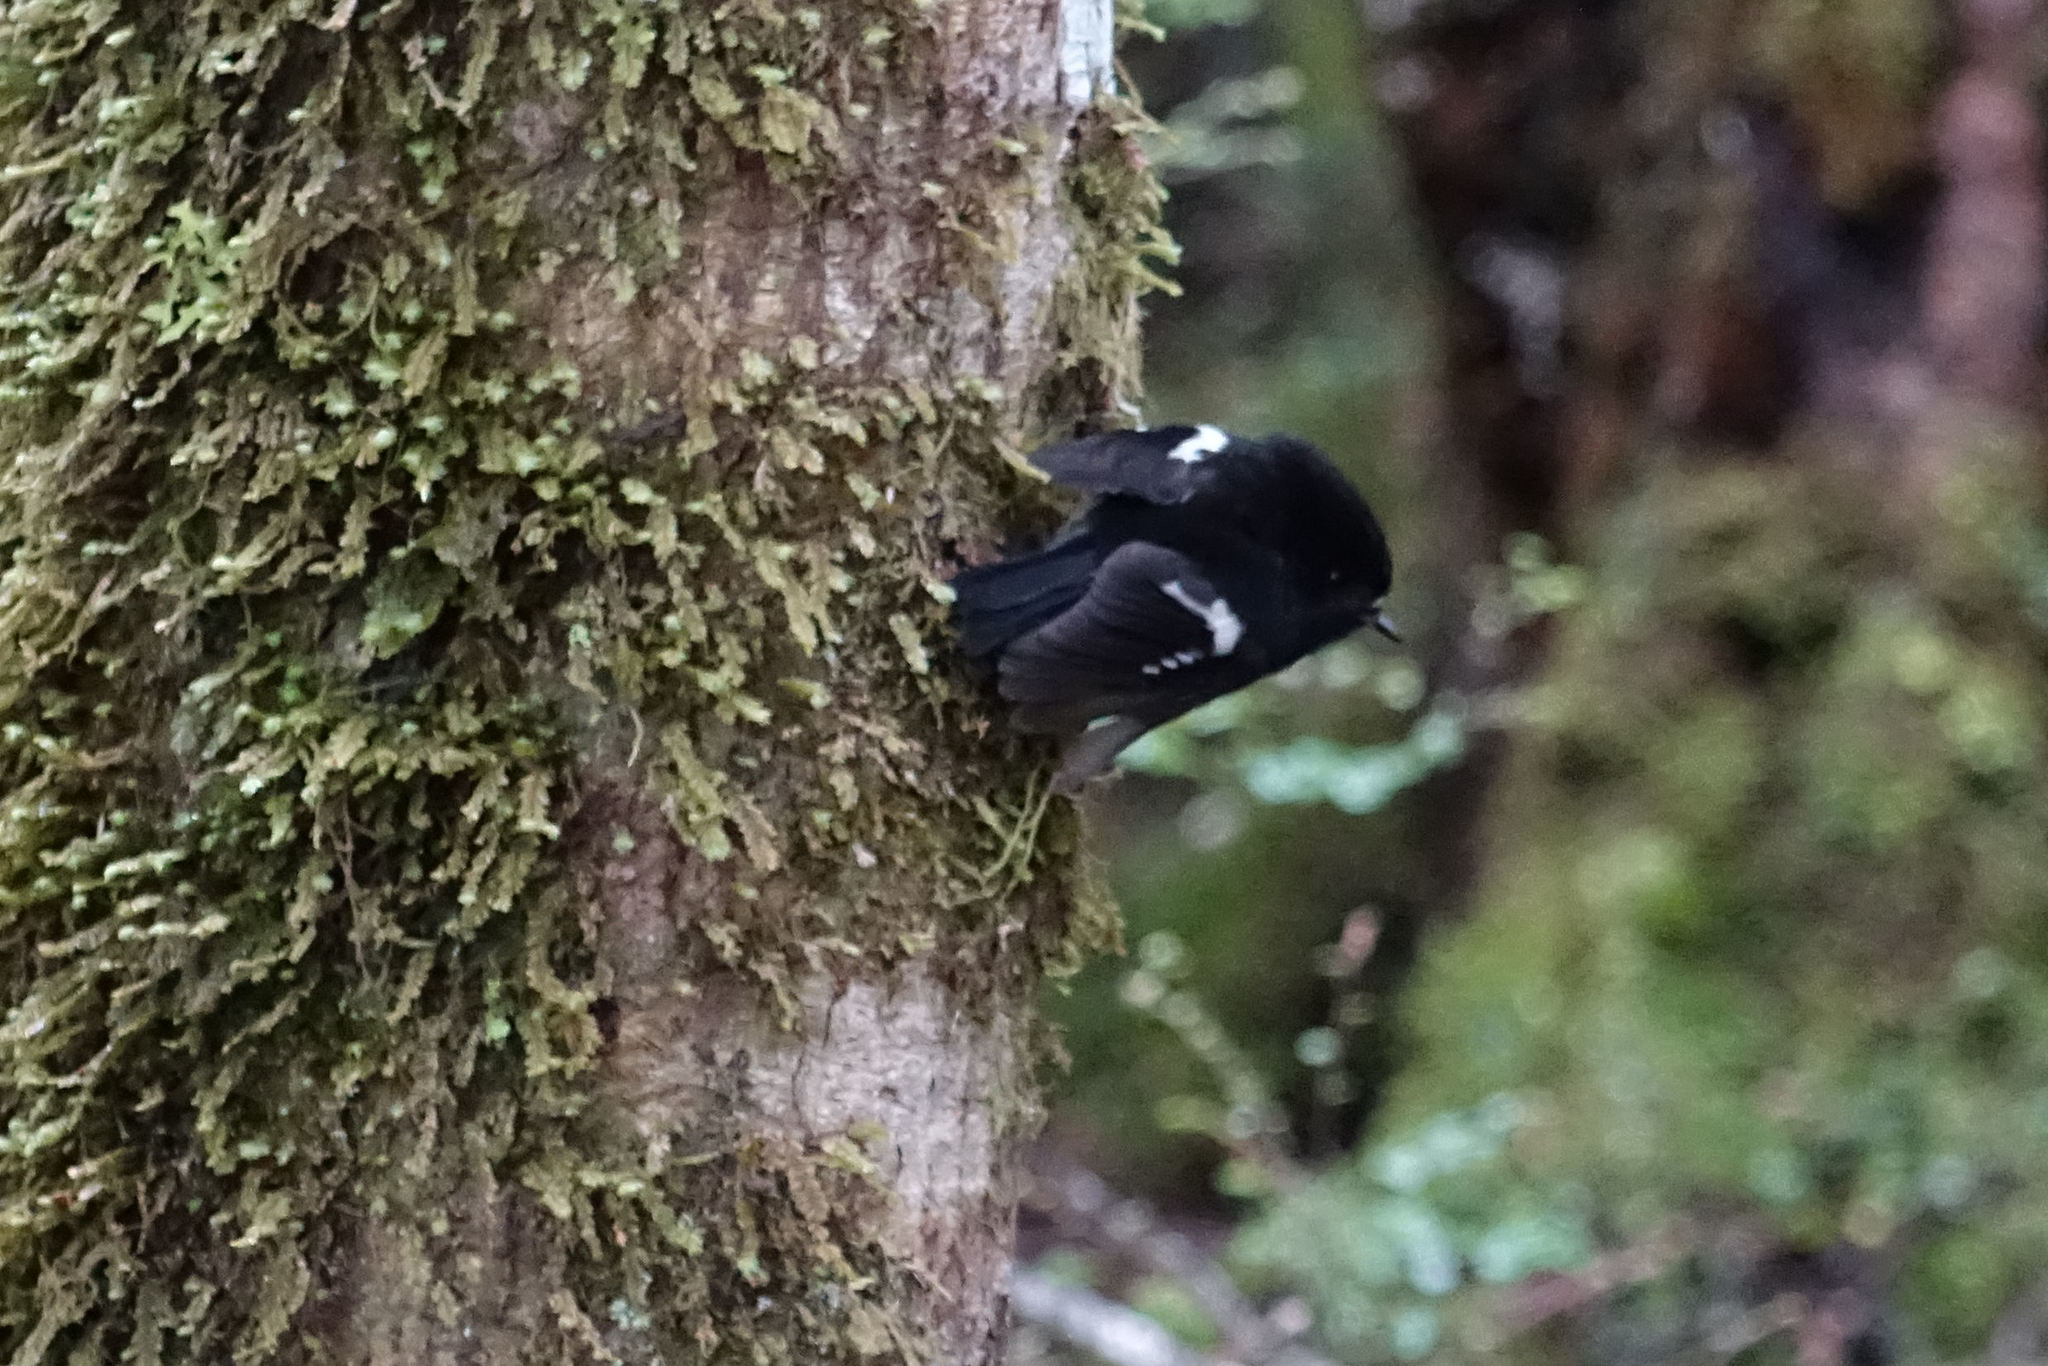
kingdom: Animalia
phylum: Chordata
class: Aves
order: Passeriformes
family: Petroicidae
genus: Petroica
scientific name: Petroica macrocephala
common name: Tomtit
